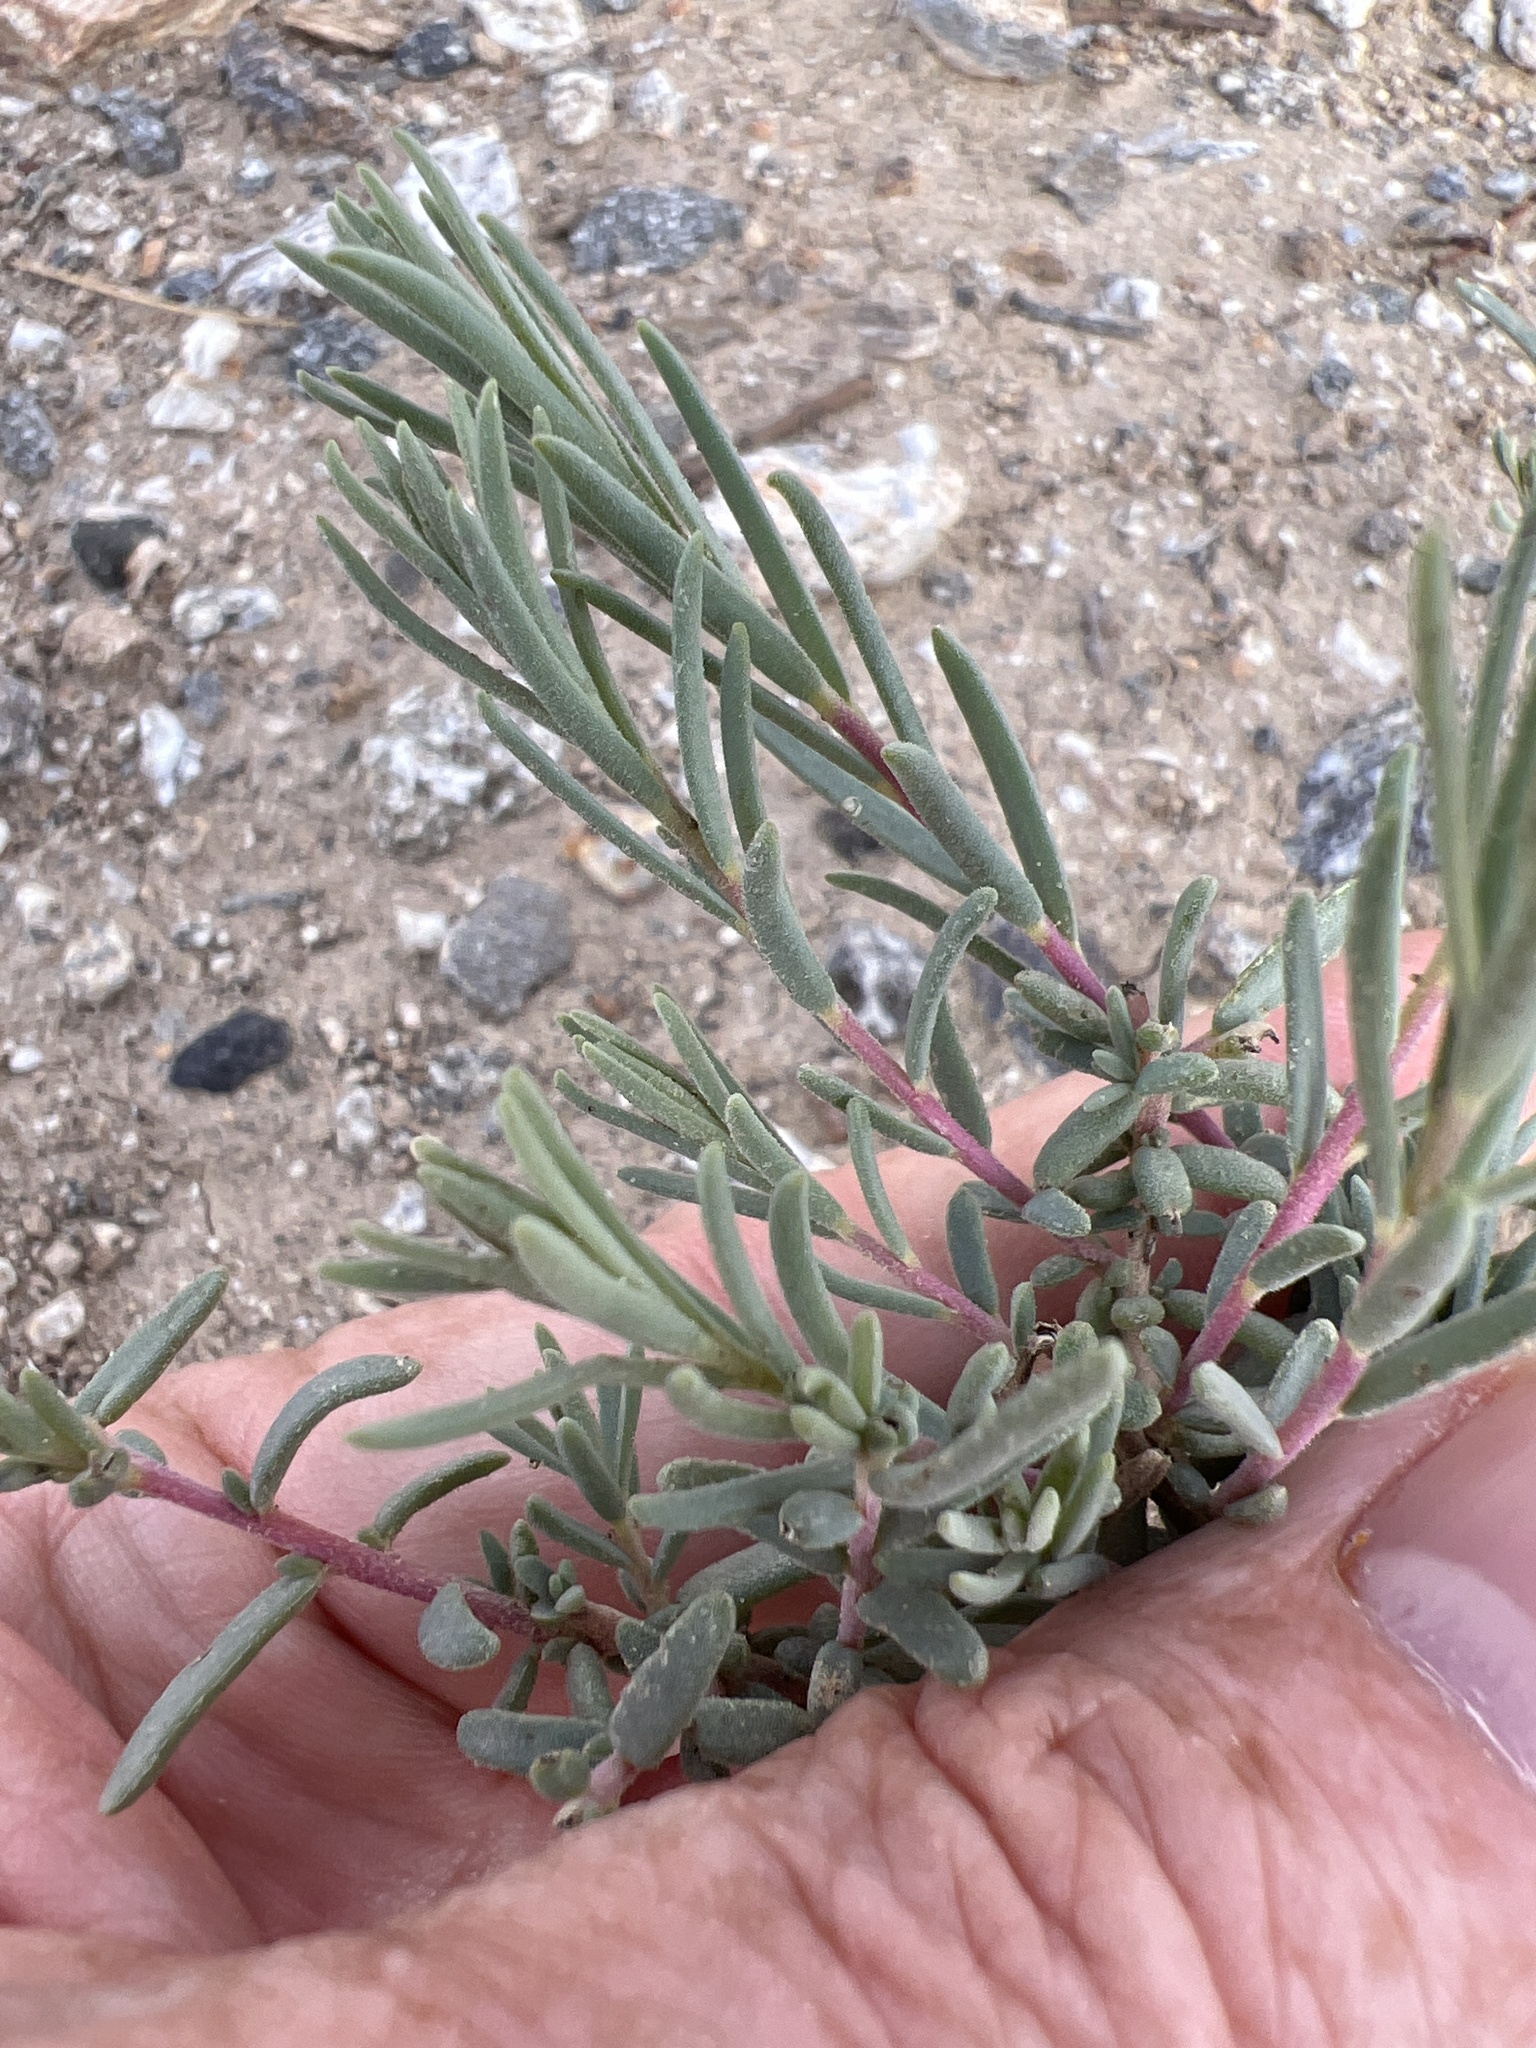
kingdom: Plantae
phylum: Tracheophyta
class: Magnoliopsida
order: Caryophyllales
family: Amaranthaceae
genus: Suaeda
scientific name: Suaeda nigra
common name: Bush seepweed
